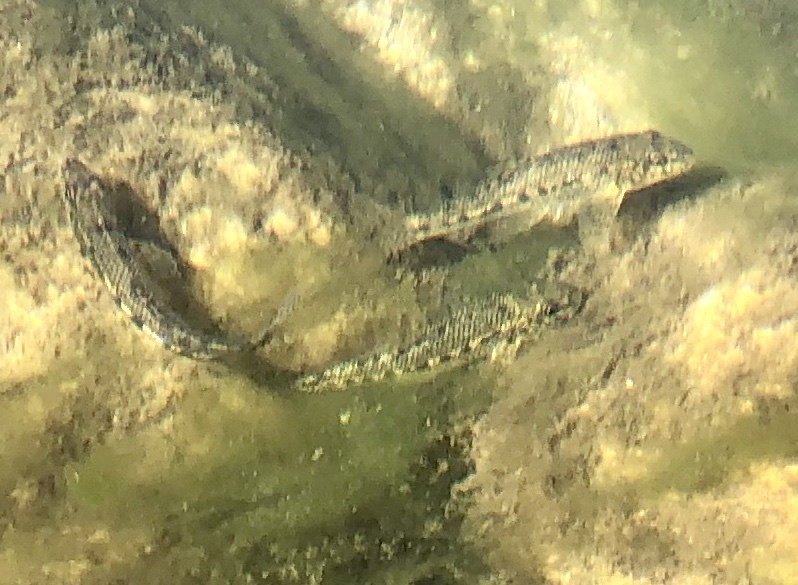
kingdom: Animalia
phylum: Chordata
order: Cypriniformes
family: Cyprinidae
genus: Gobio
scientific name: Gobio gobio
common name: Gudgeon
